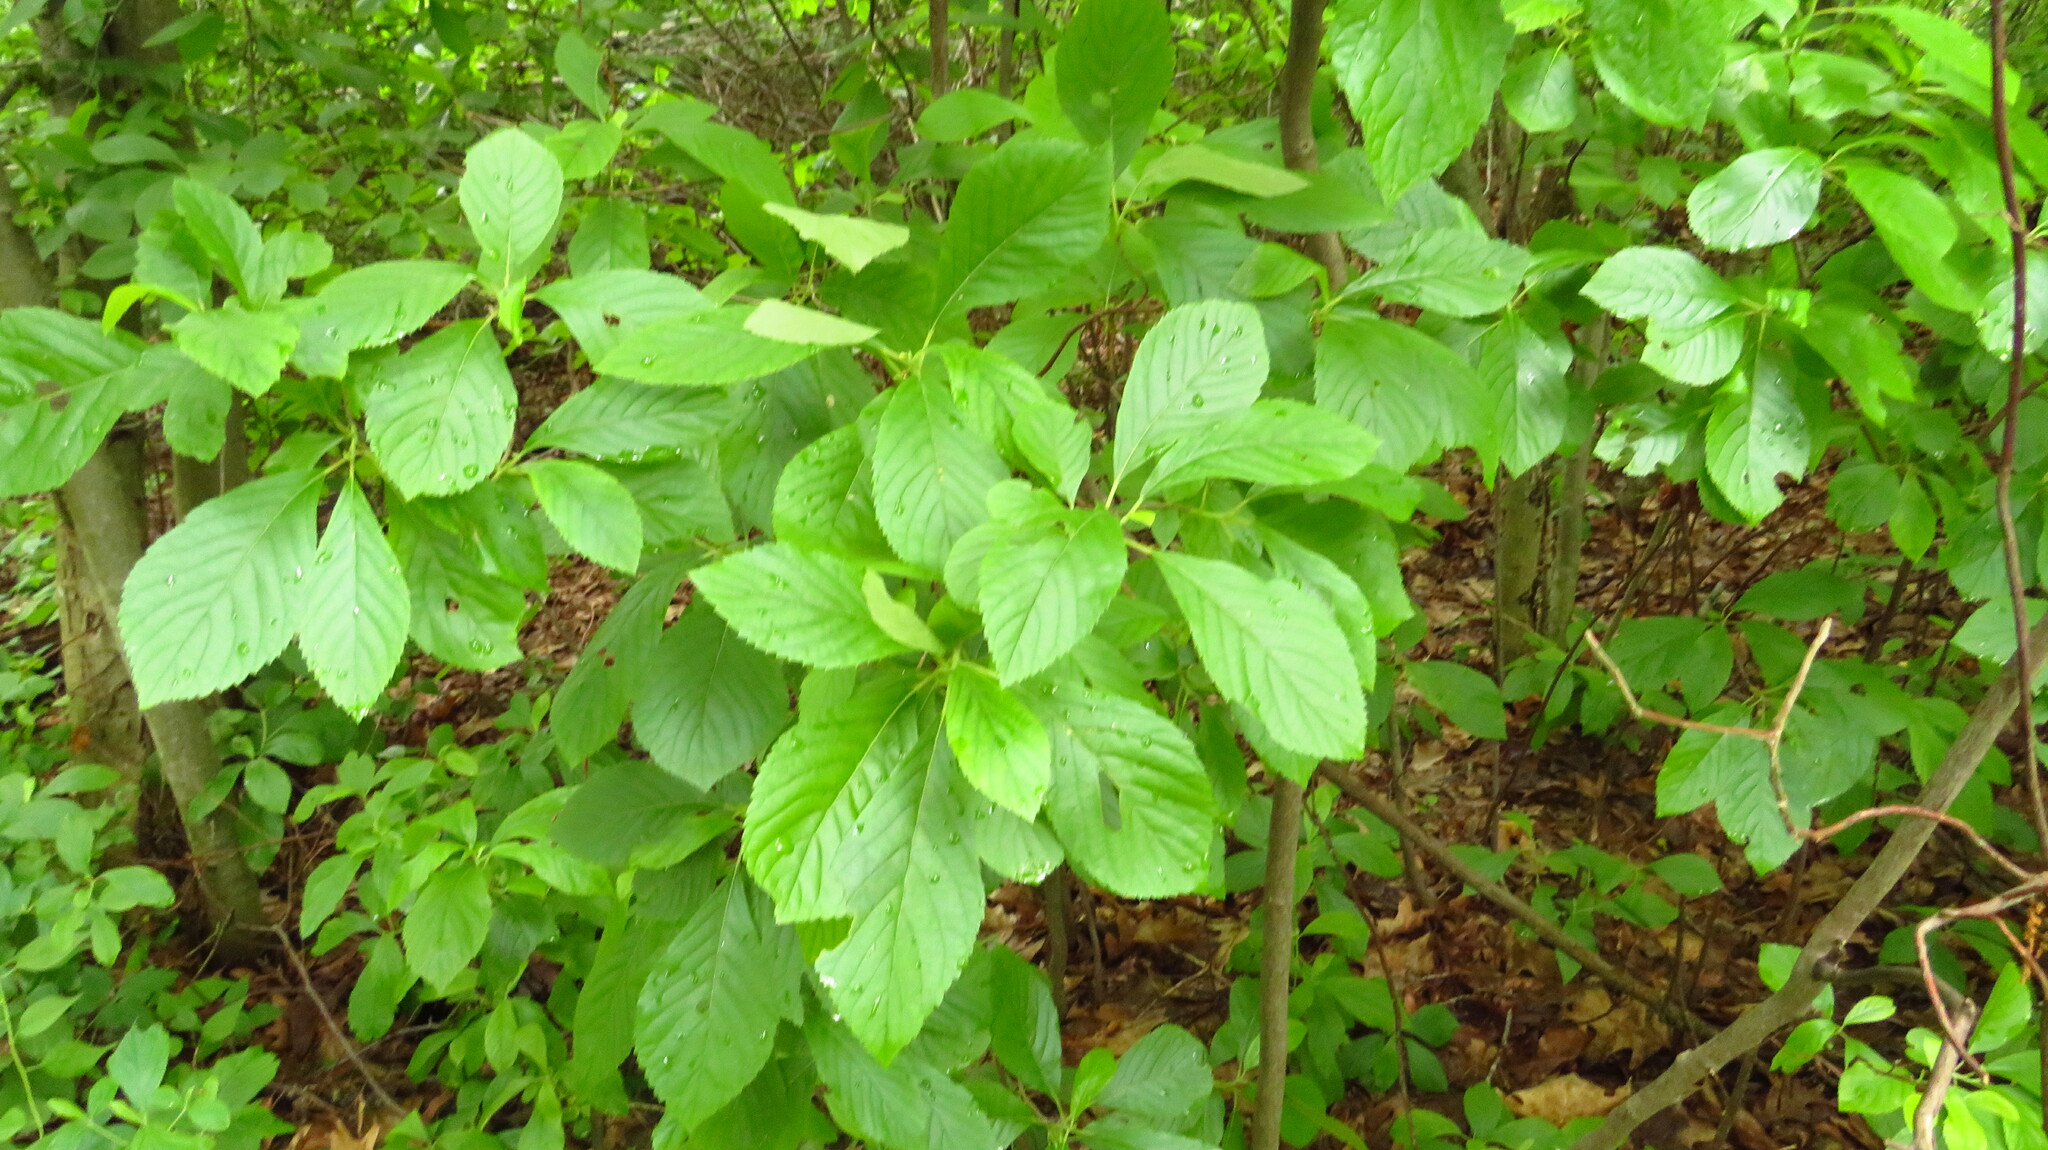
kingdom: Plantae
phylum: Tracheophyta
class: Magnoliopsida
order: Ericales
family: Clethraceae
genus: Clethra
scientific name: Clethra alnifolia
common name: Sweet pepperbush
